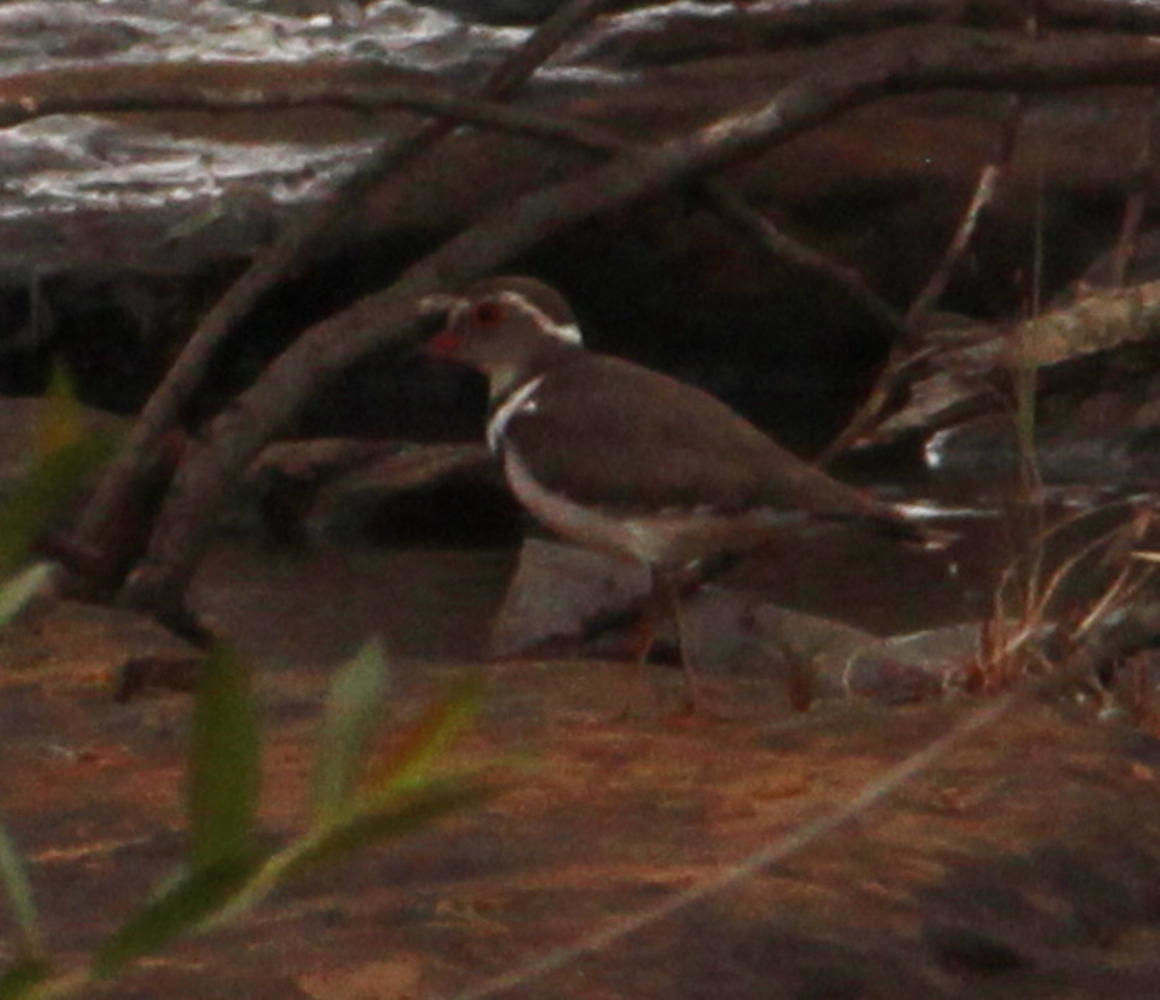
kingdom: Animalia
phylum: Chordata
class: Aves
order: Charadriiformes
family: Charadriidae
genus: Charadrius
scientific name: Charadrius tricollaris
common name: Three-banded plover
